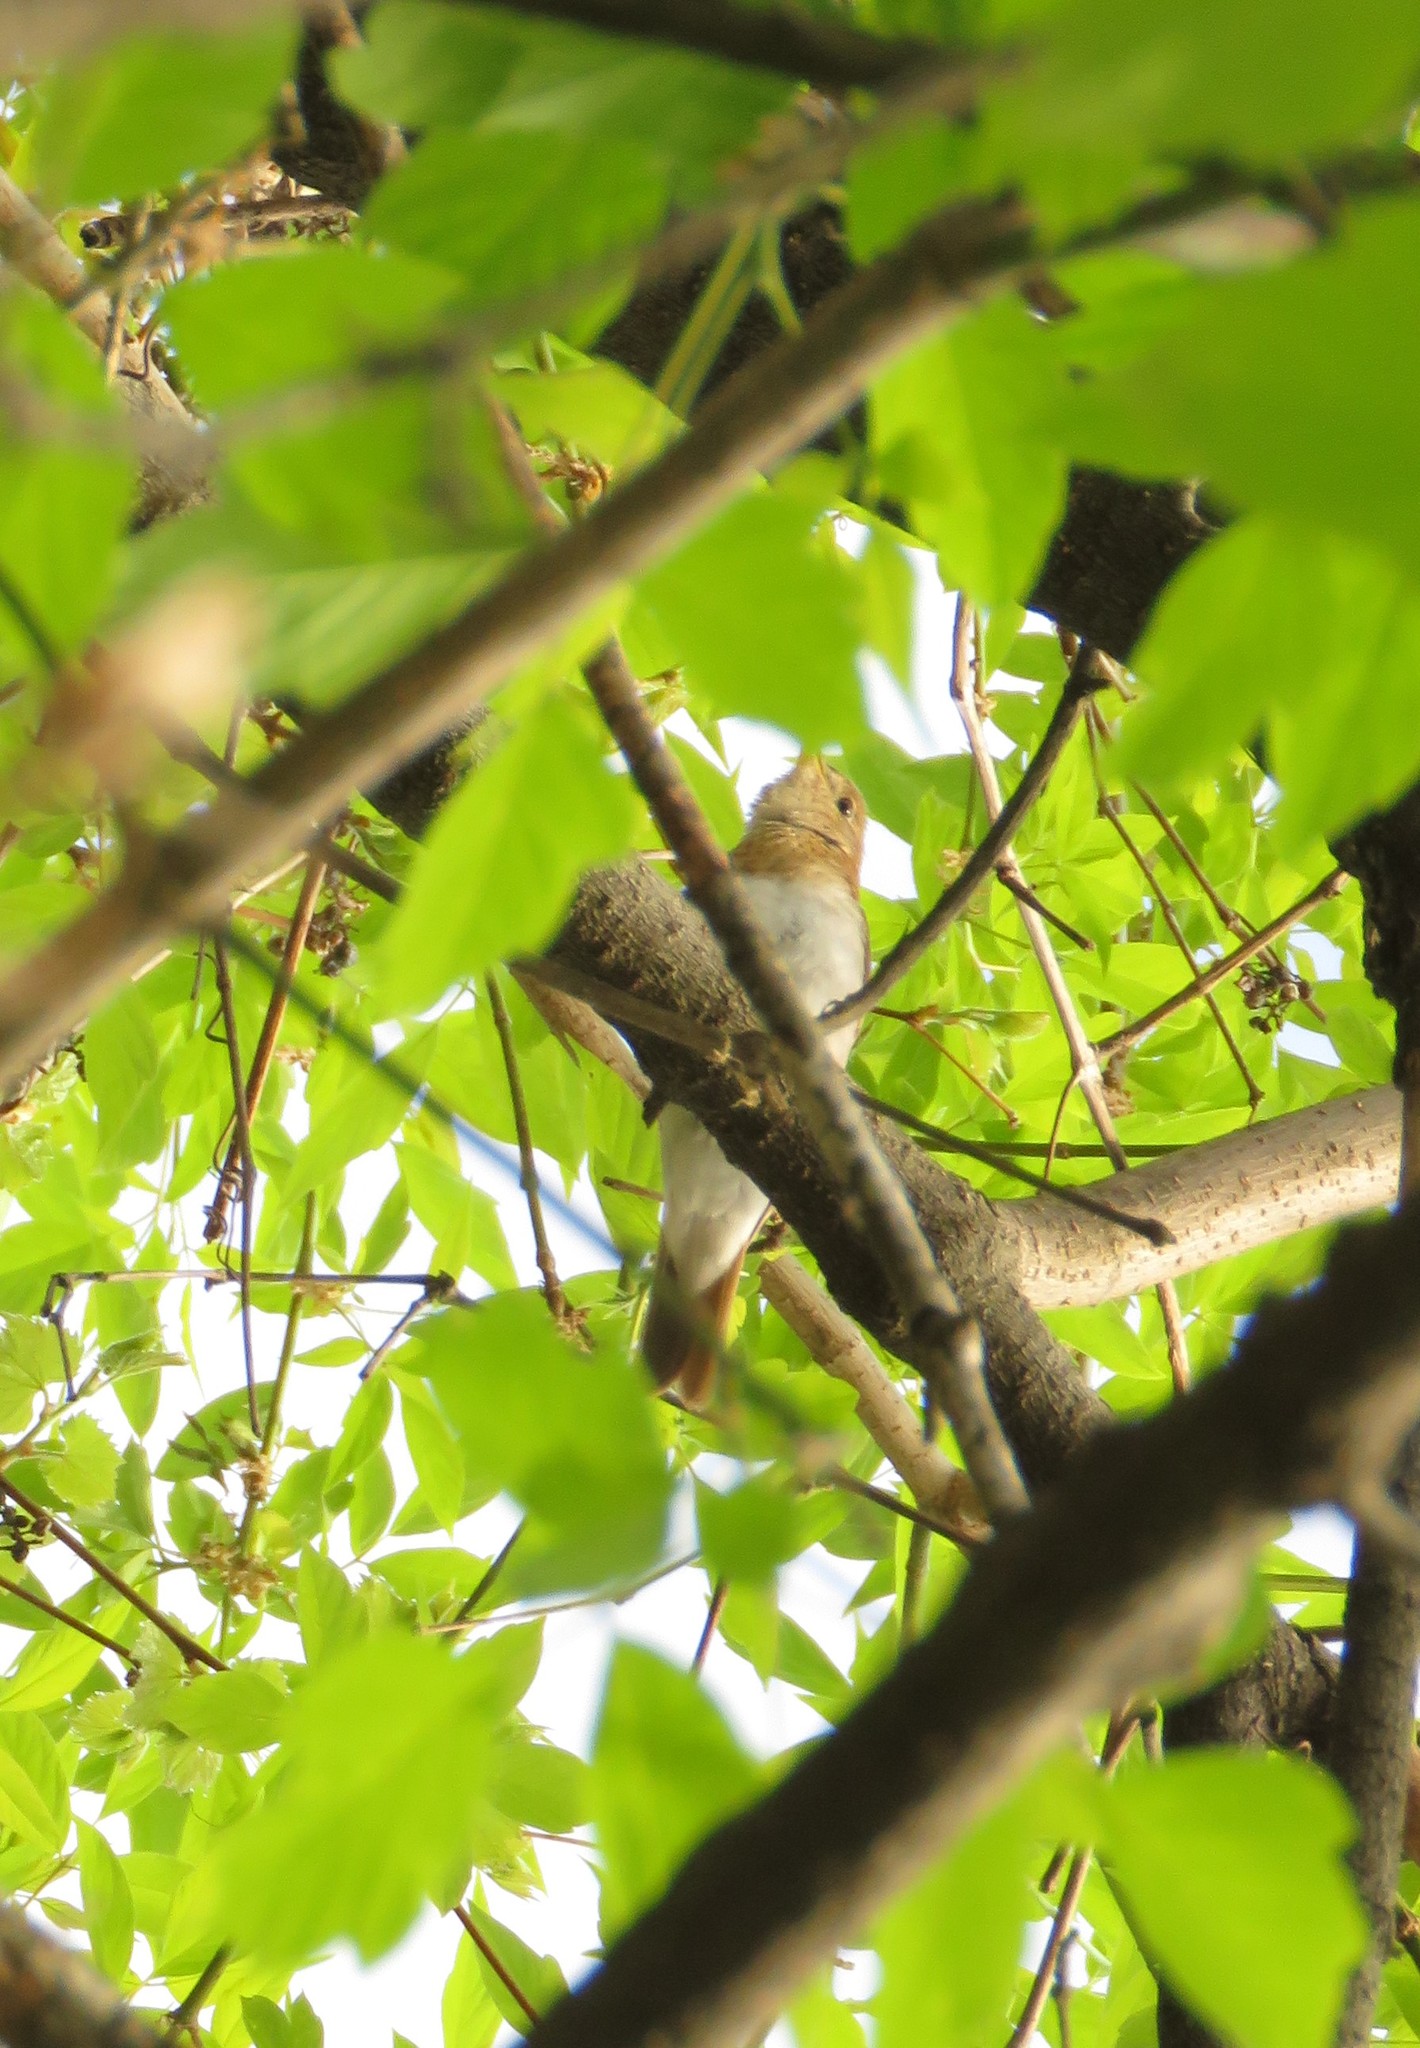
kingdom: Animalia
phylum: Chordata
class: Aves
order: Passeriformes
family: Turdidae
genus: Catharus
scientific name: Catharus fuscescens
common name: Veery
